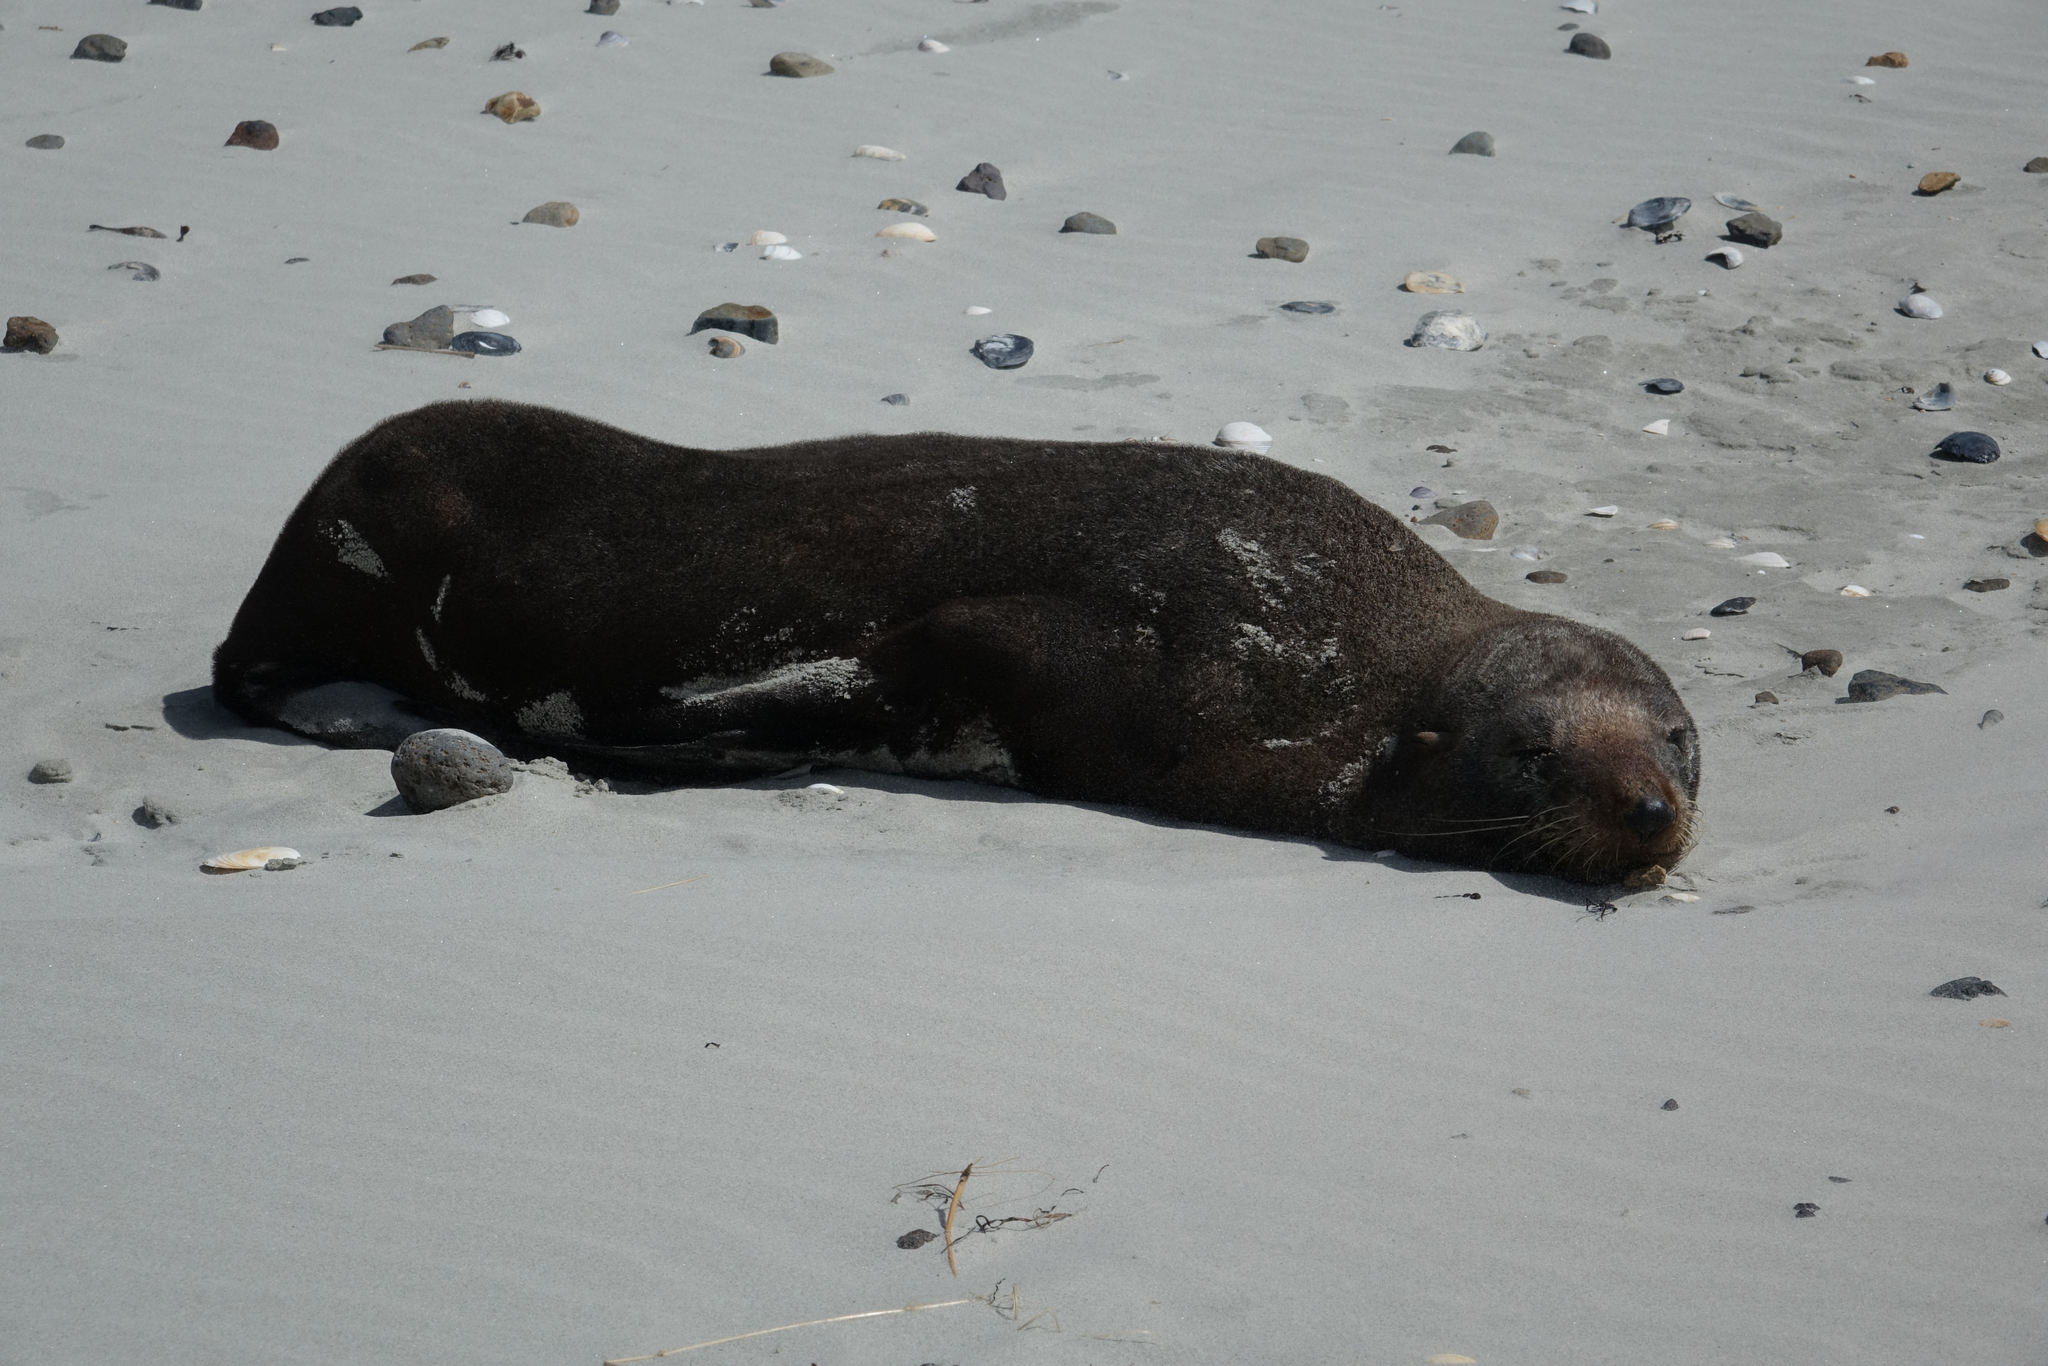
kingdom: Animalia
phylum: Chordata
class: Mammalia
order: Carnivora
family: Otariidae
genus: Arctocephalus
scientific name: Arctocephalus forsteri
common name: New zealand fur seal
